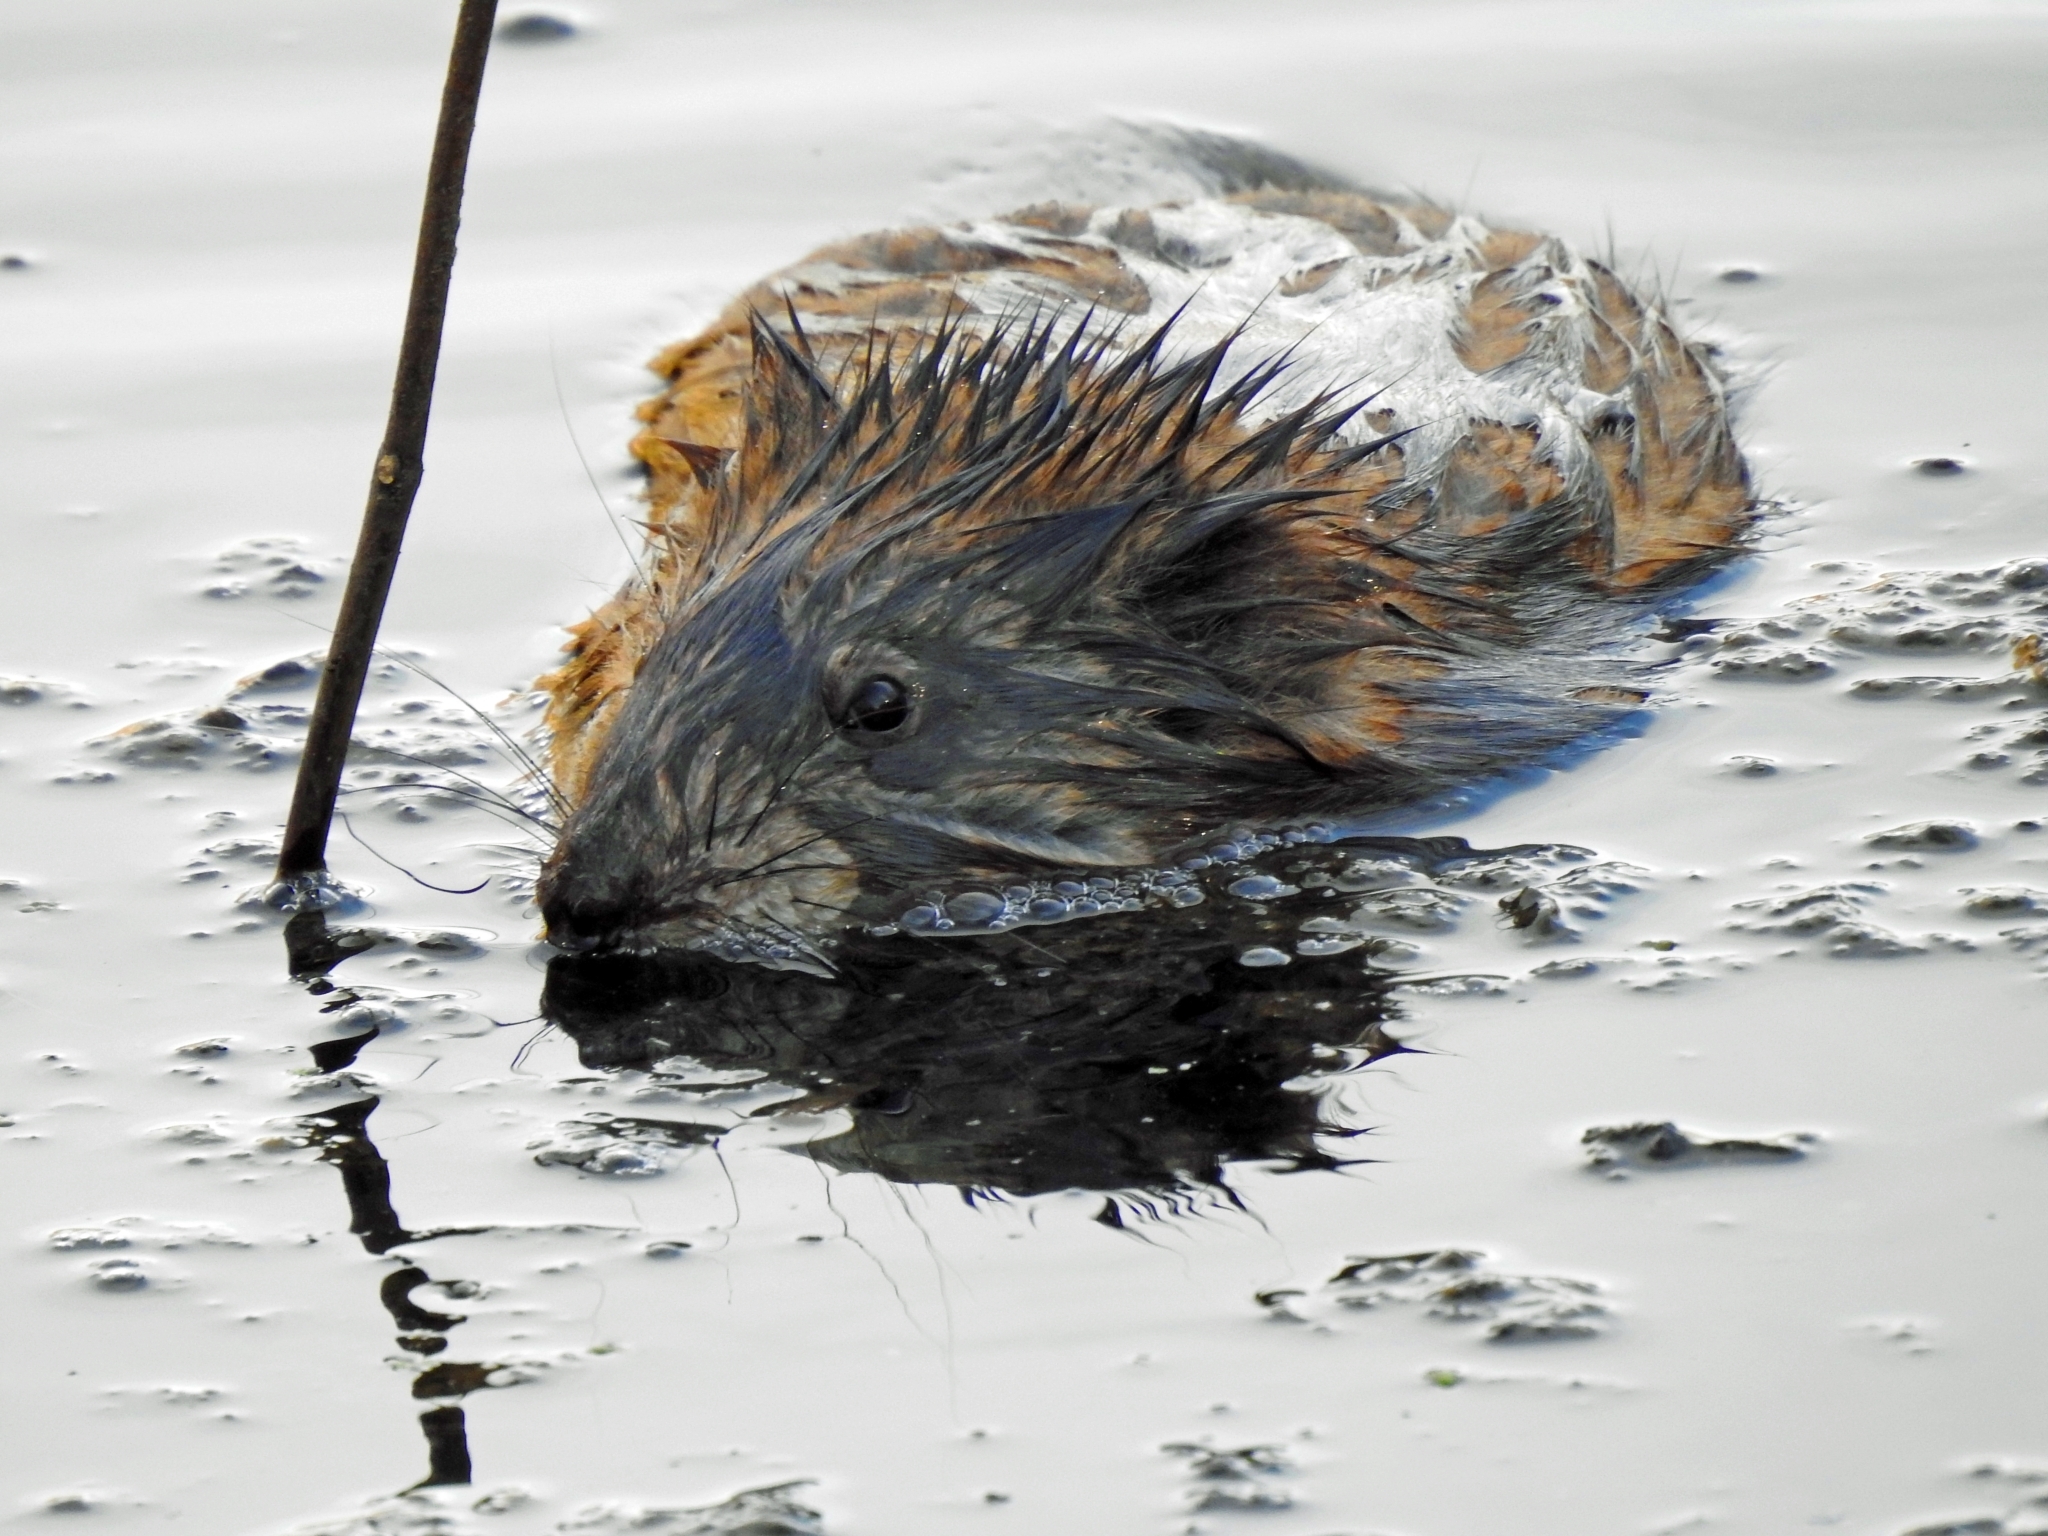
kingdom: Animalia
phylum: Chordata
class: Mammalia
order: Rodentia
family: Cricetidae
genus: Ondatra
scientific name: Ondatra zibethicus
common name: Muskrat
